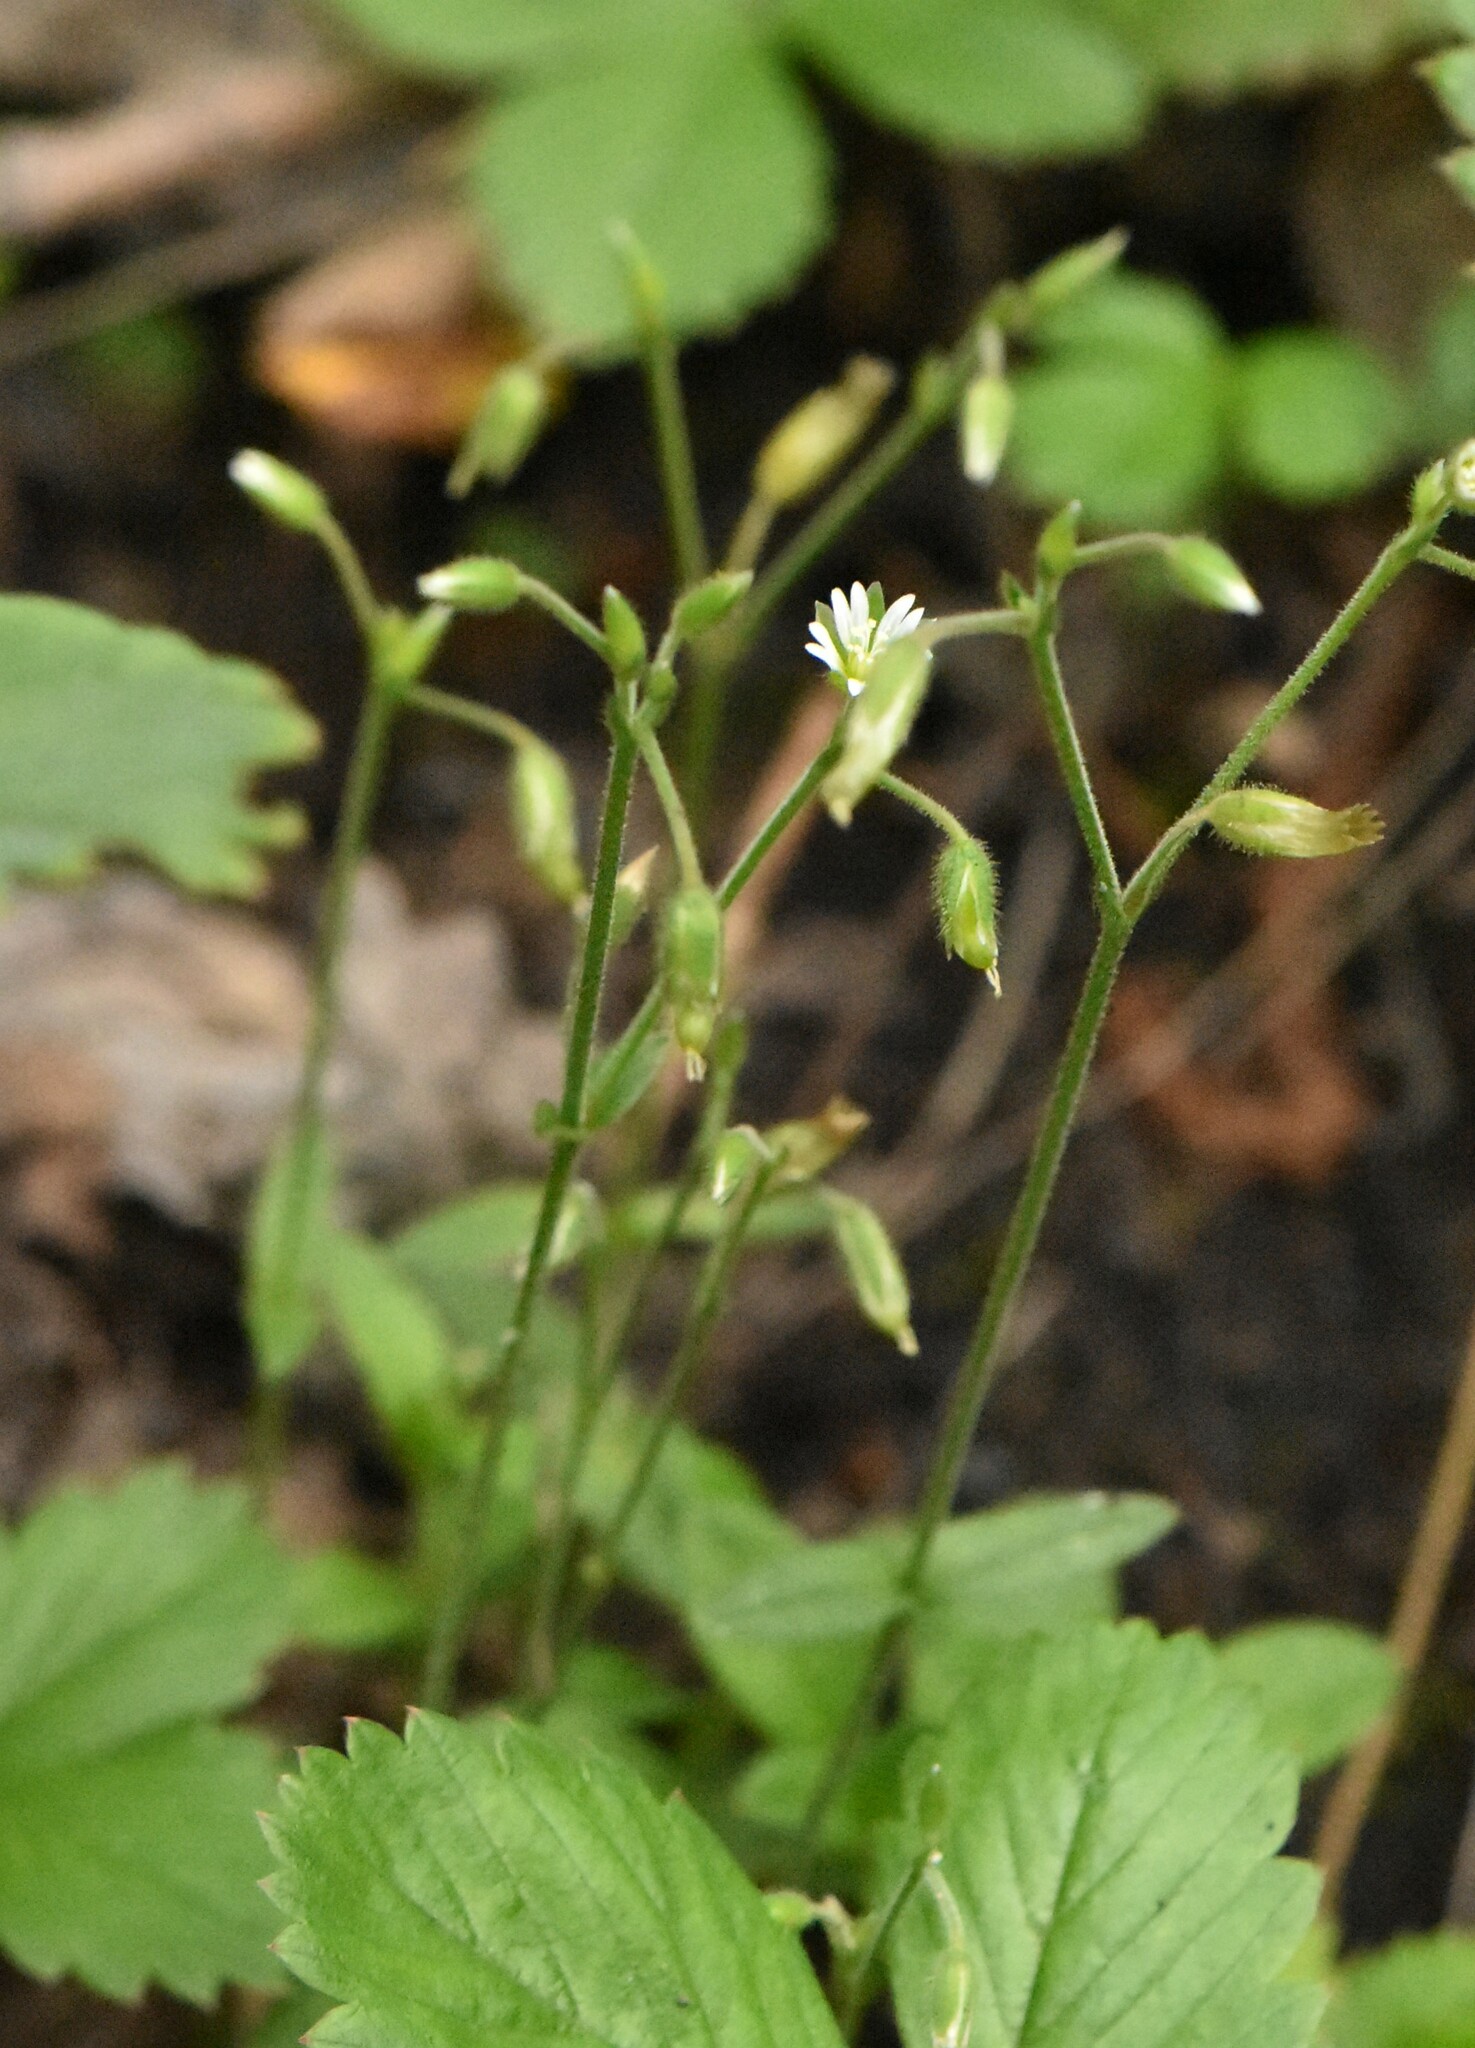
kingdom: Plantae
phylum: Tracheophyta
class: Magnoliopsida
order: Caryophyllales
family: Caryophyllaceae
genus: Cerastium
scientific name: Cerastium holosteoides
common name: Big chickweed
